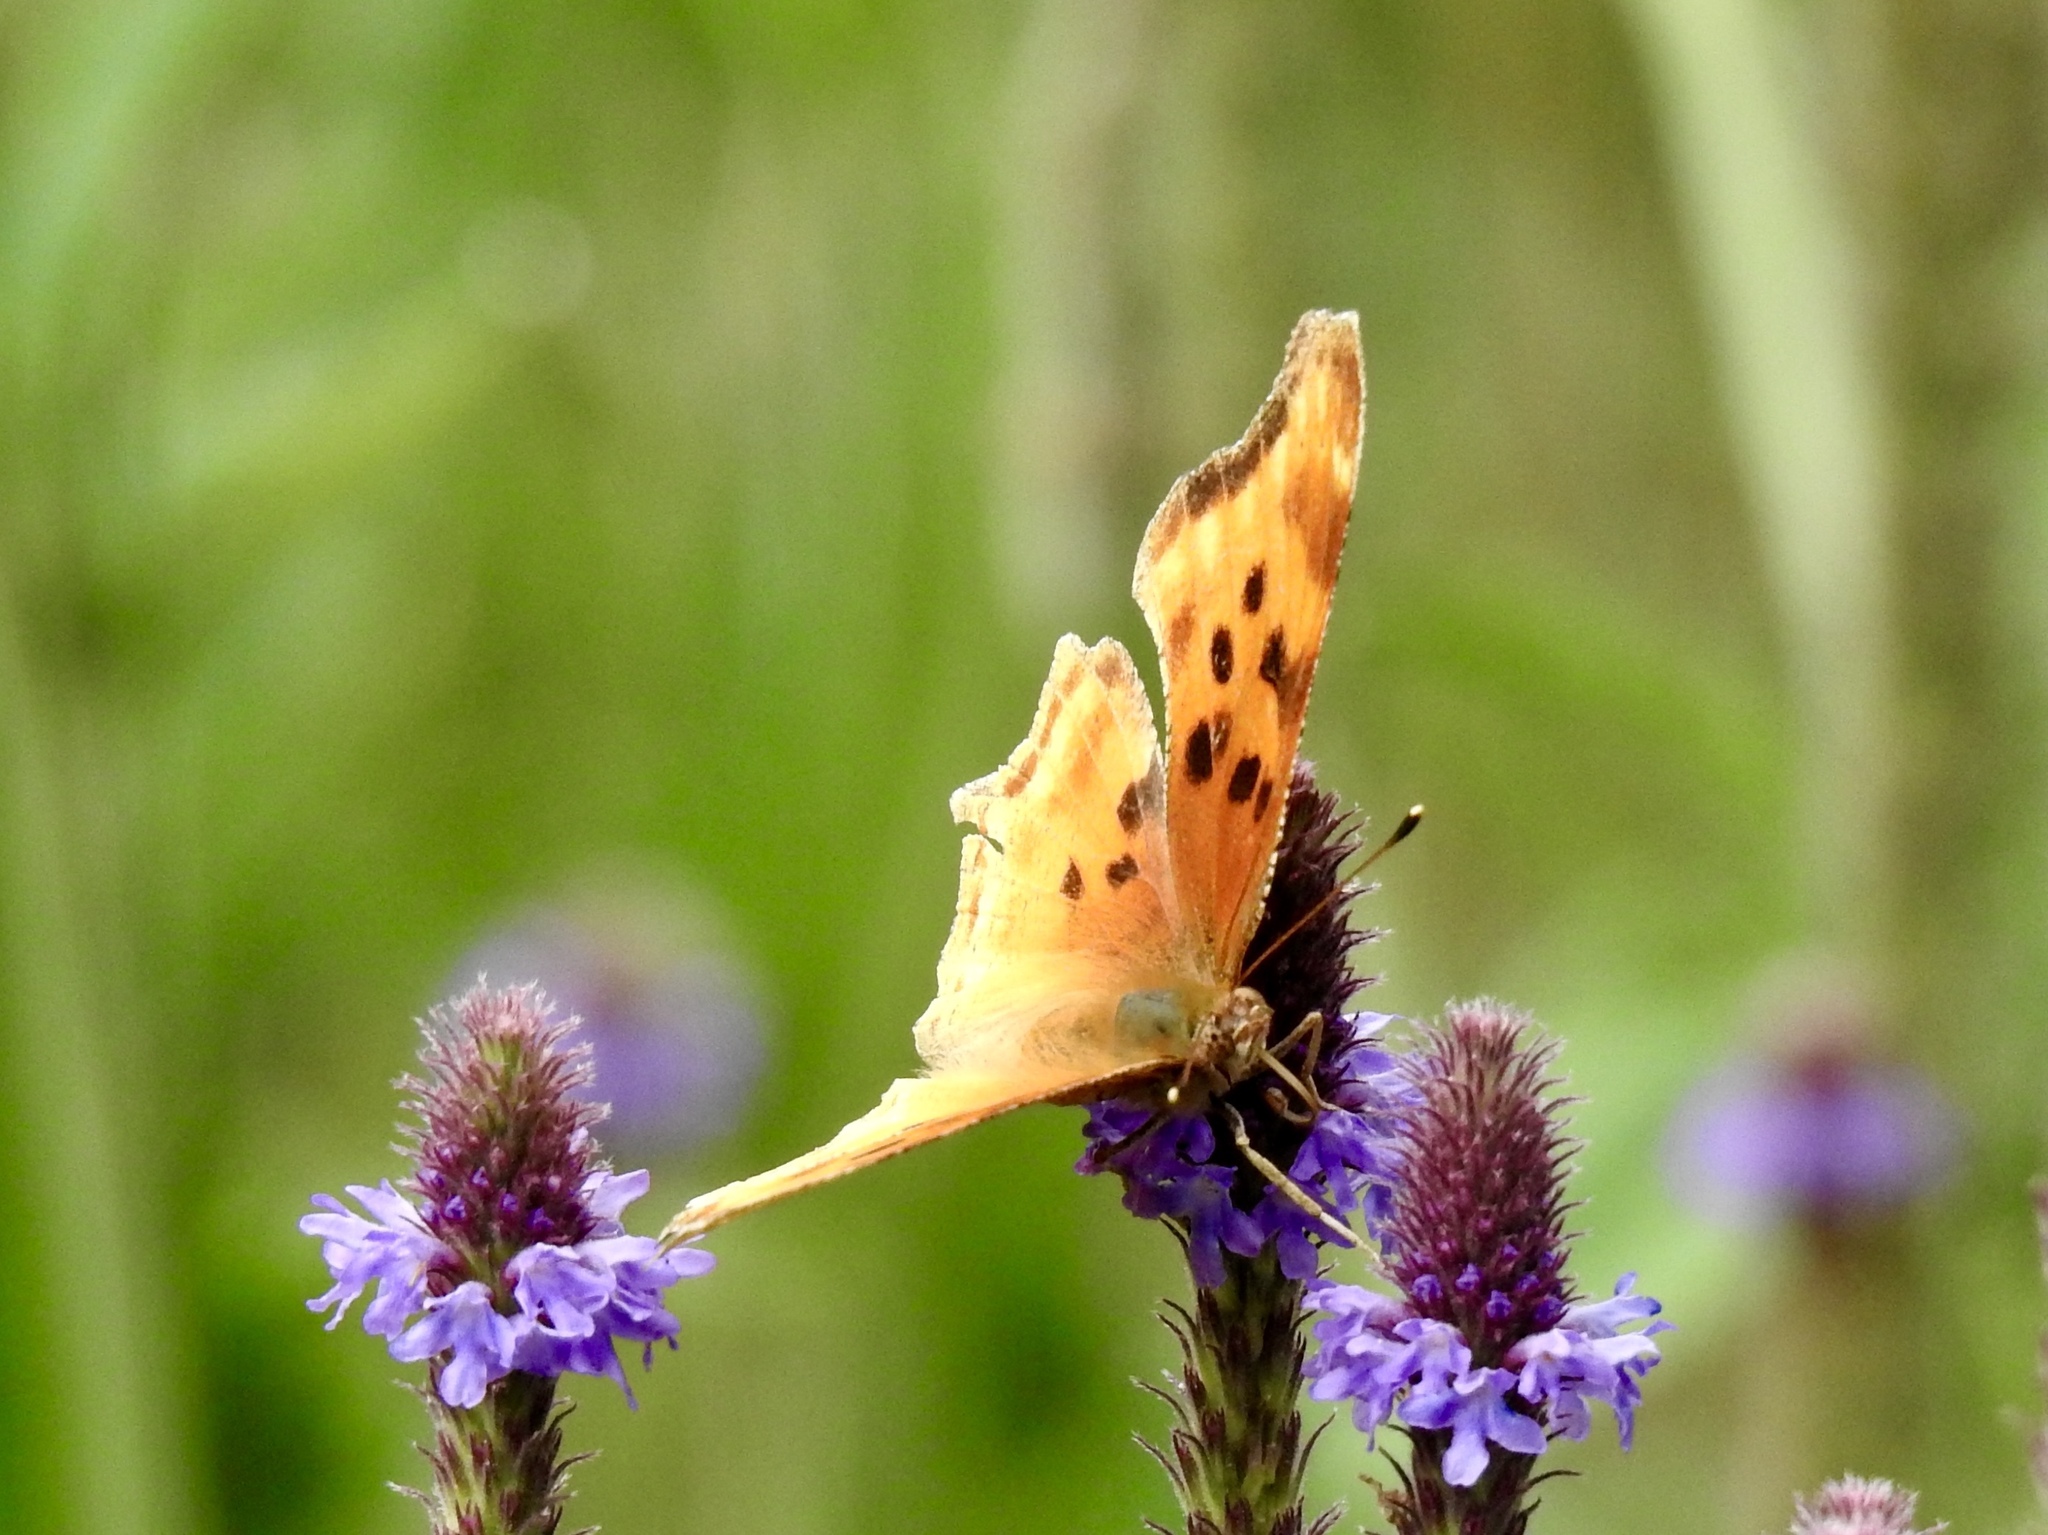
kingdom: Animalia
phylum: Arthropoda
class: Insecta
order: Lepidoptera
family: Nymphalidae
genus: Polygonia
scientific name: Polygonia satyrus
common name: Satyr angle wing
